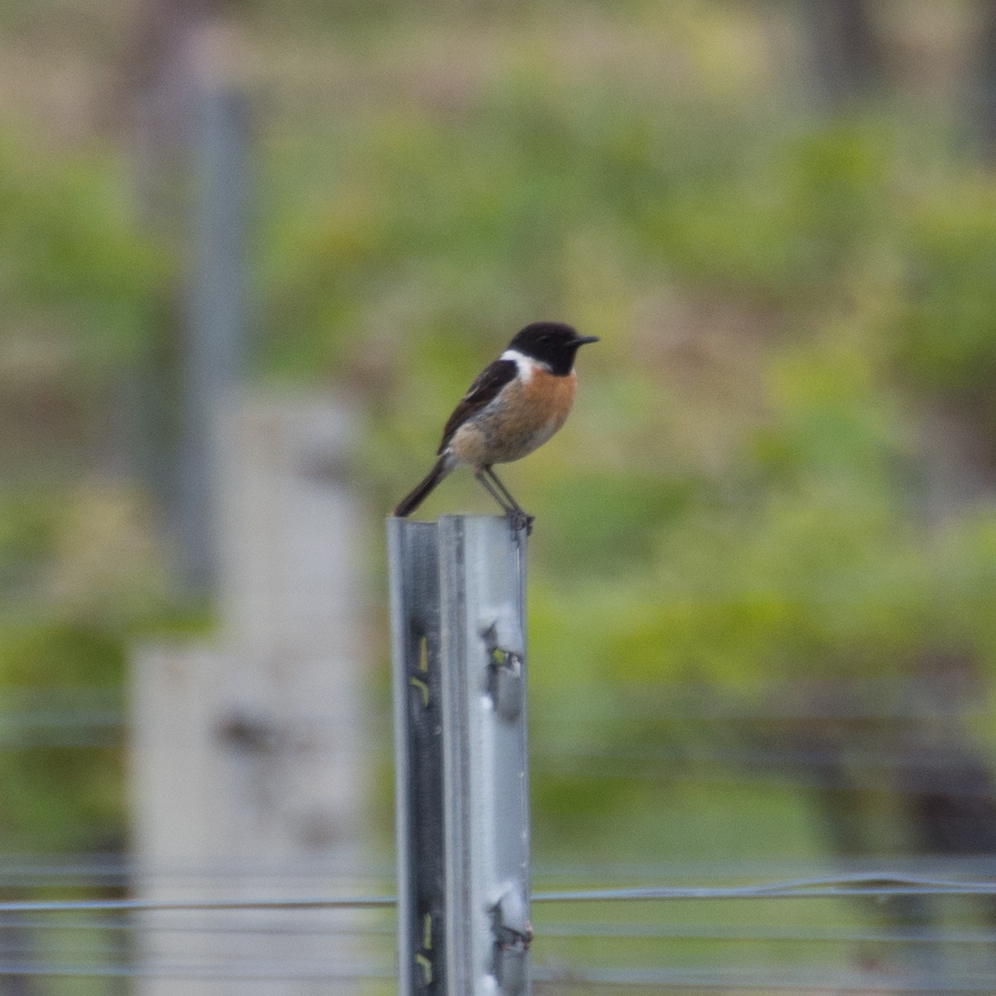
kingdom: Animalia
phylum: Chordata
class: Aves
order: Passeriformes
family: Muscicapidae
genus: Saxicola
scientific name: Saxicola rubicola
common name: European stonechat
